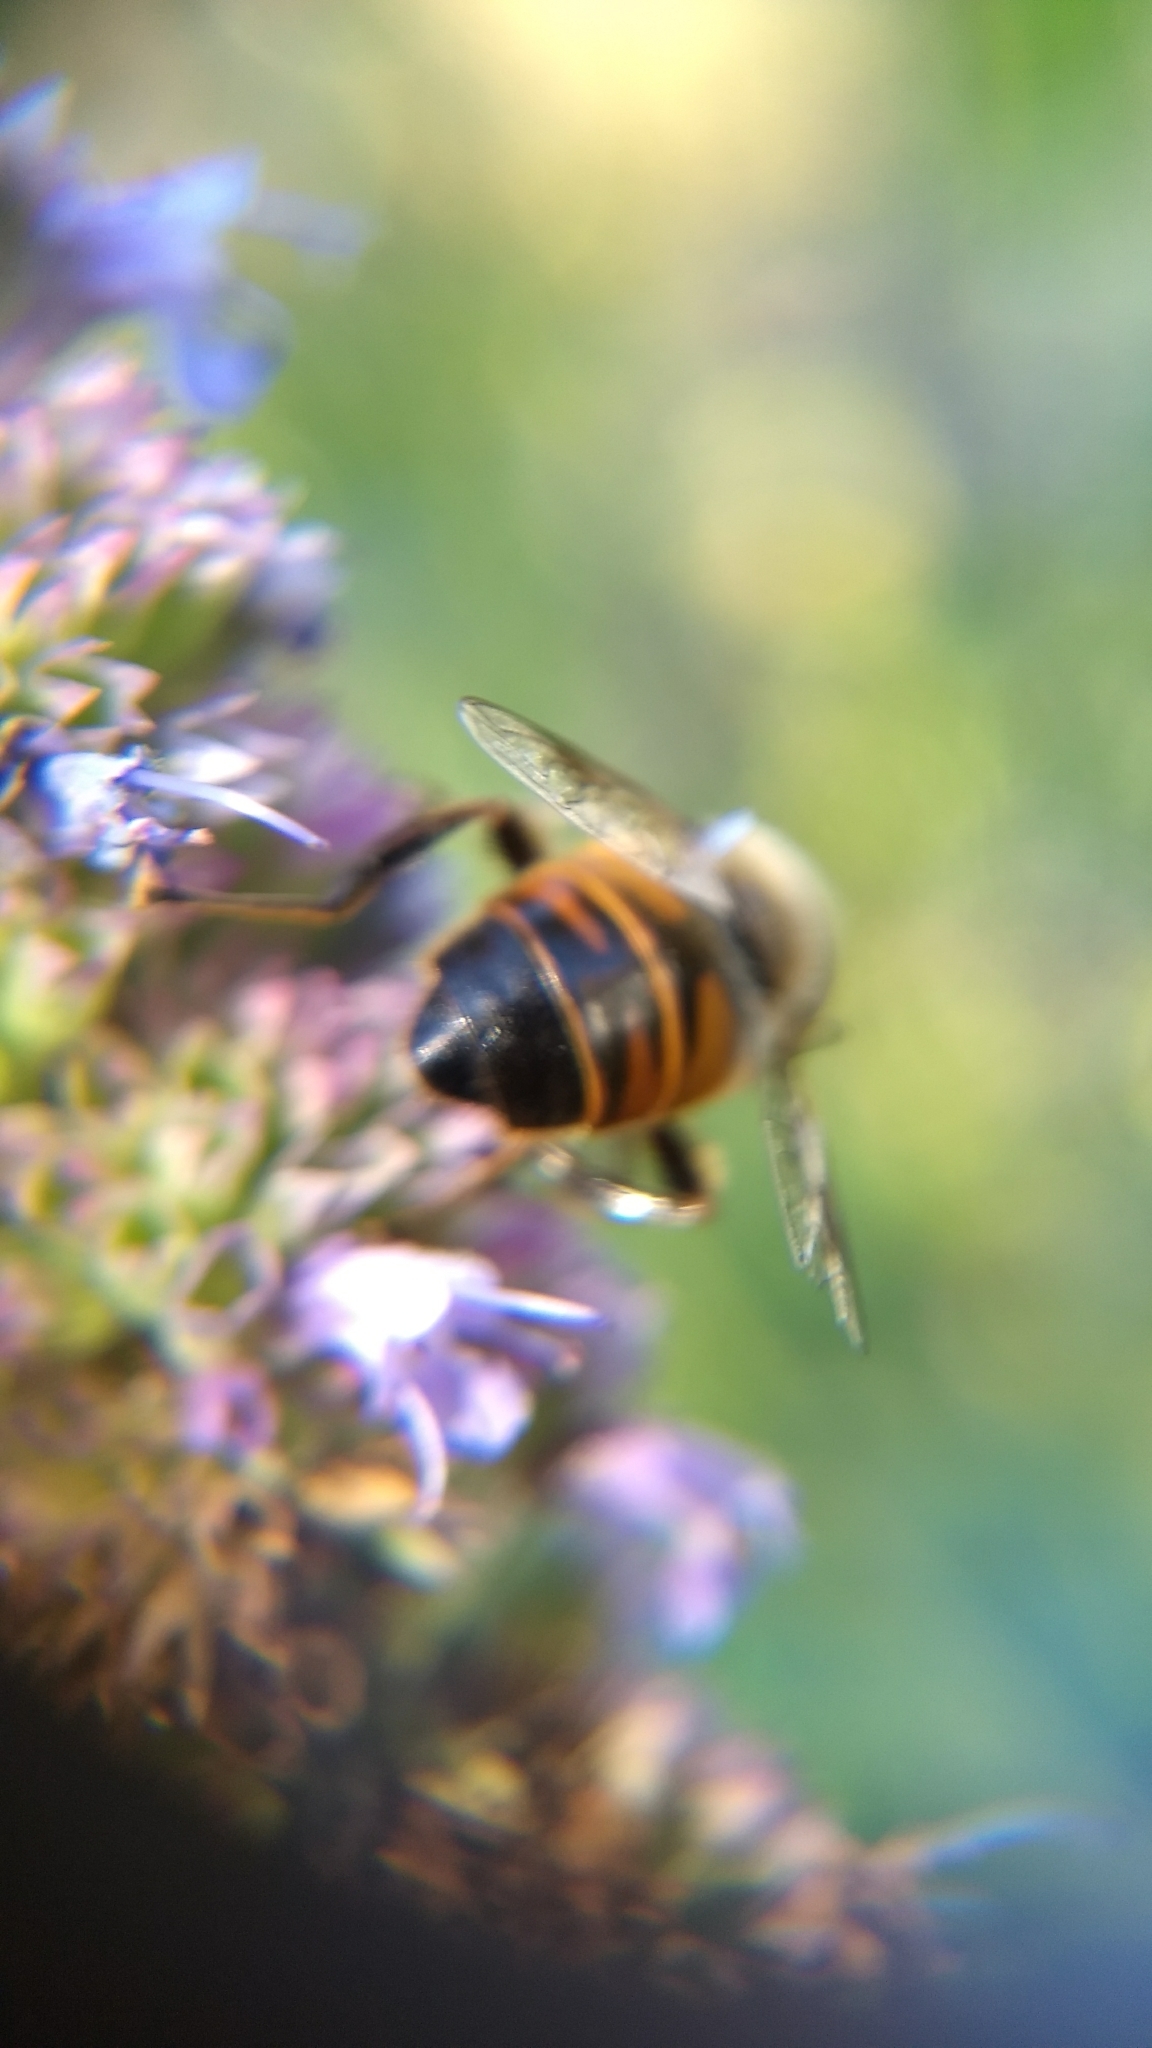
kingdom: Animalia
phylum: Arthropoda
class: Insecta
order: Diptera
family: Syrphidae
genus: Eristalis
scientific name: Eristalis tenax
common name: Drone fly
